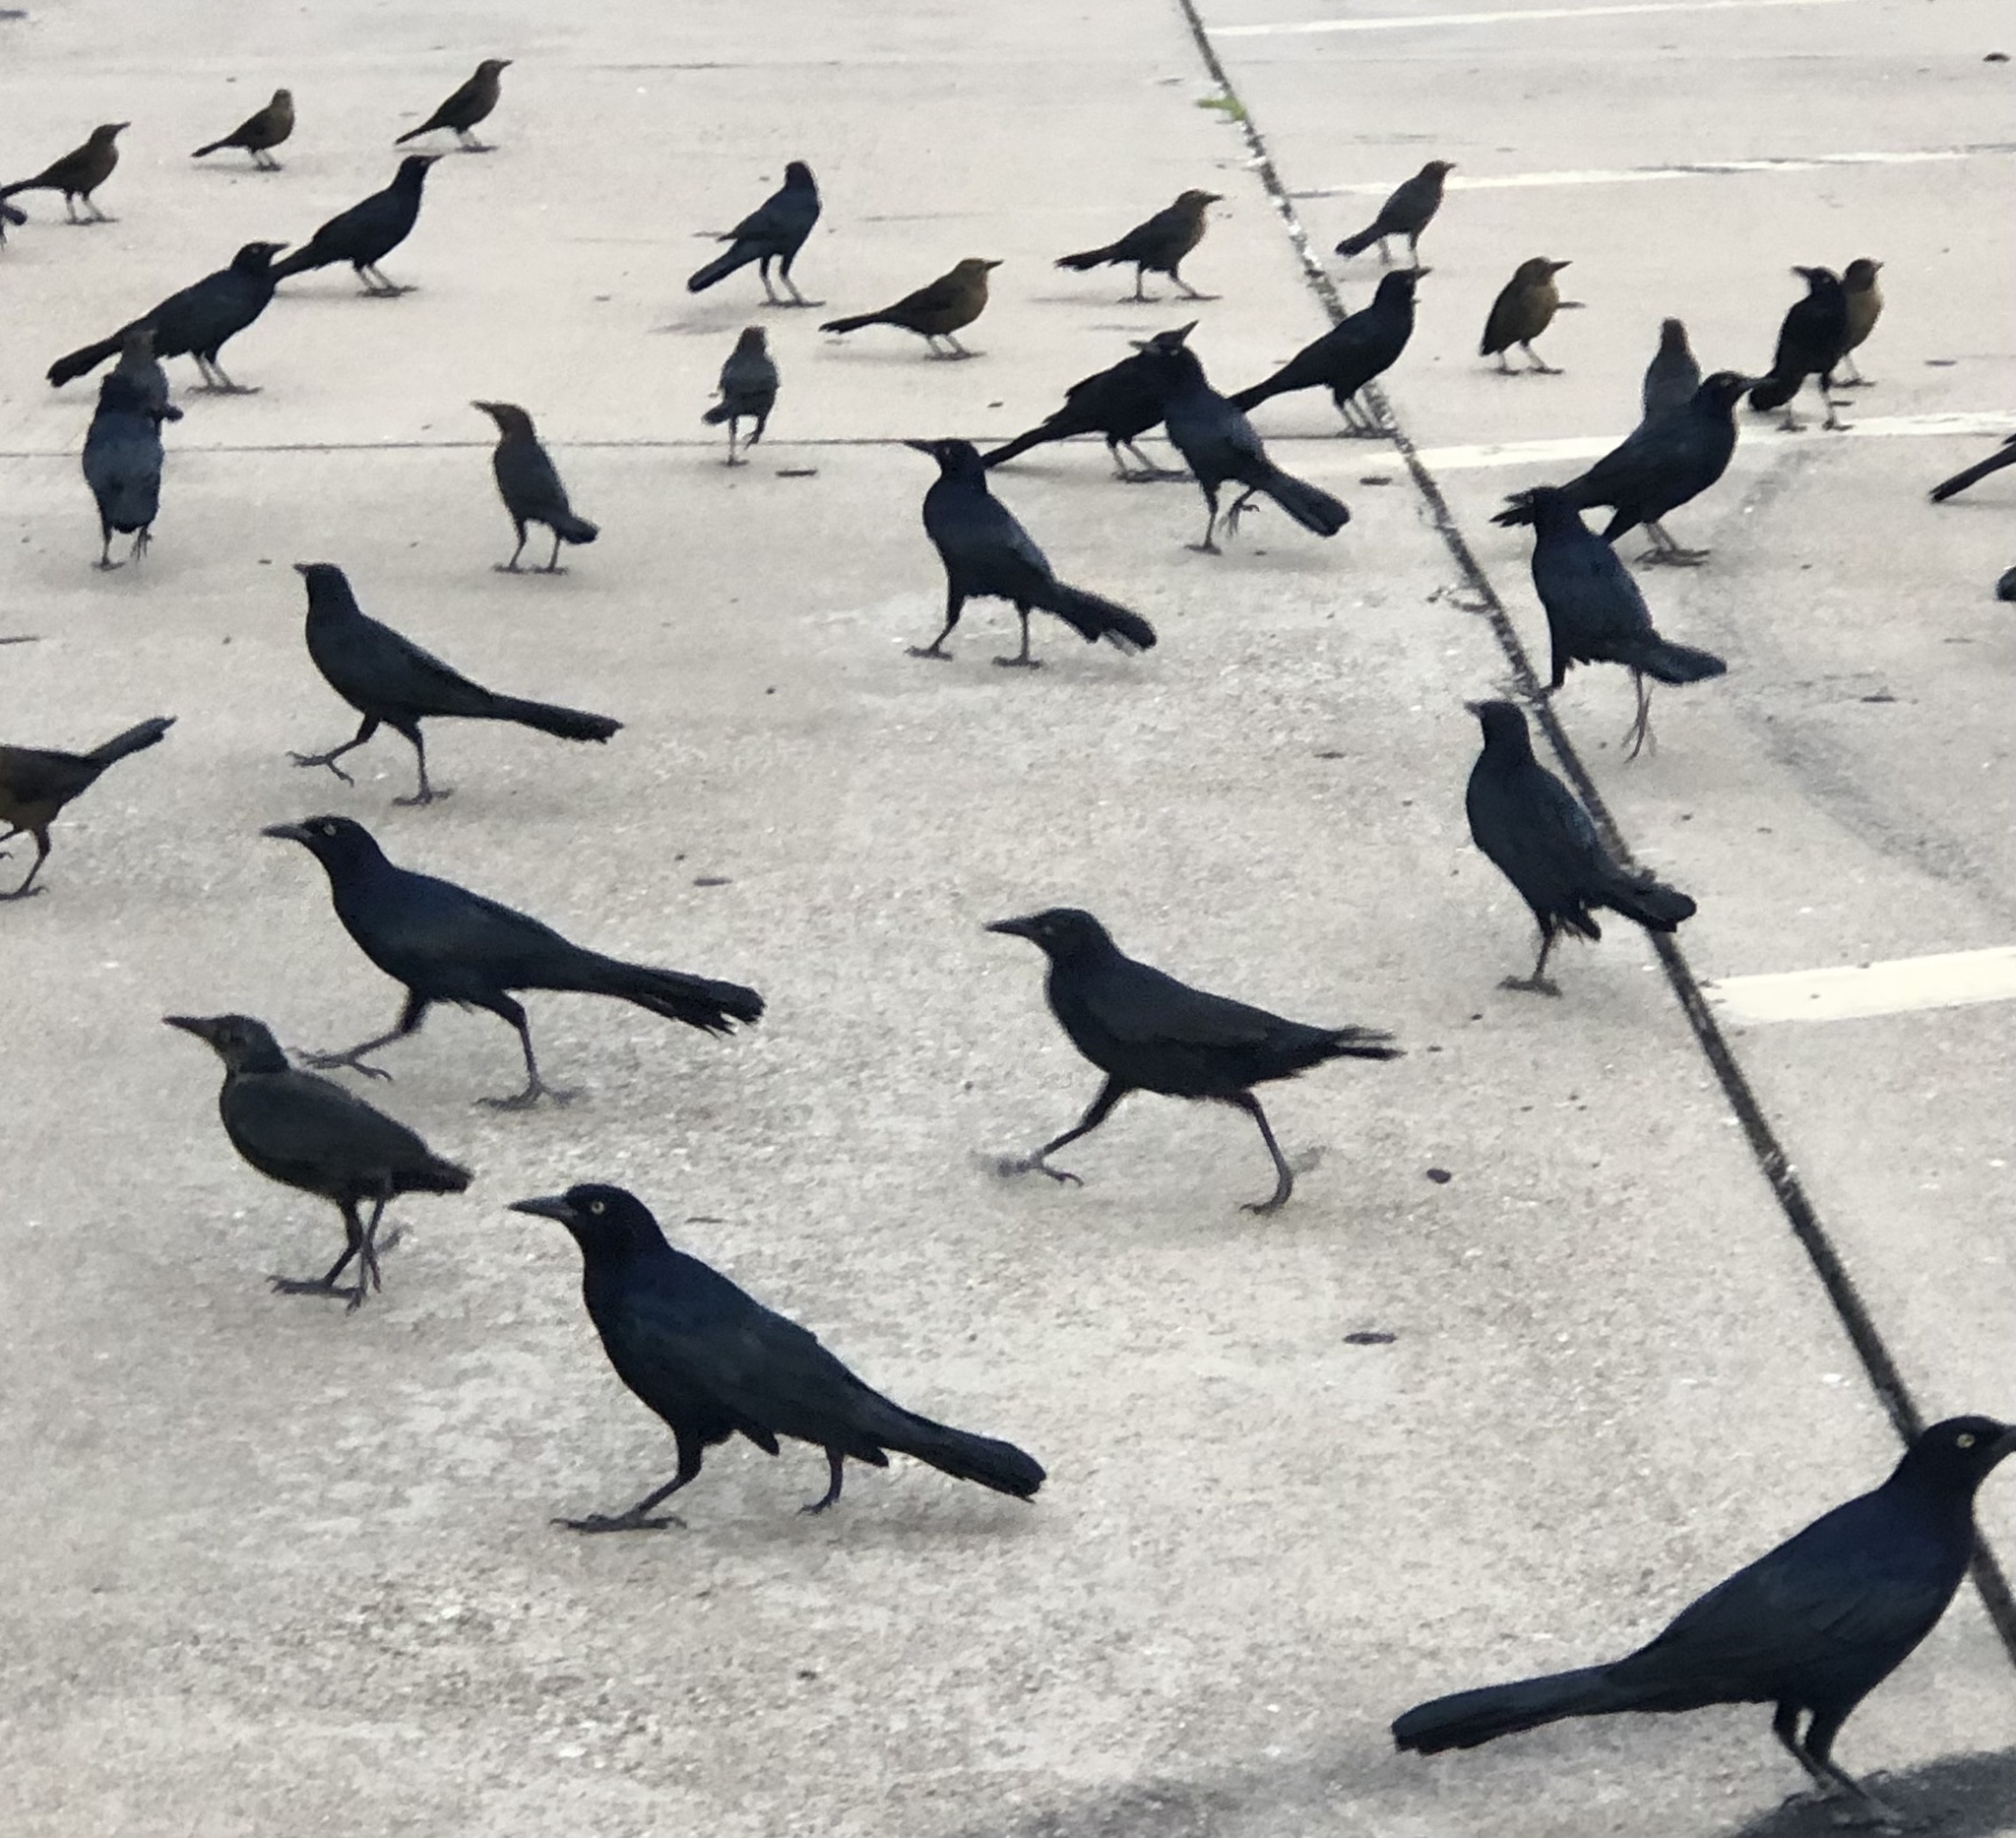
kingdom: Animalia
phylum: Chordata
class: Aves
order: Passeriformes
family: Icteridae
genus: Quiscalus
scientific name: Quiscalus mexicanus
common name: Great-tailed grackle
